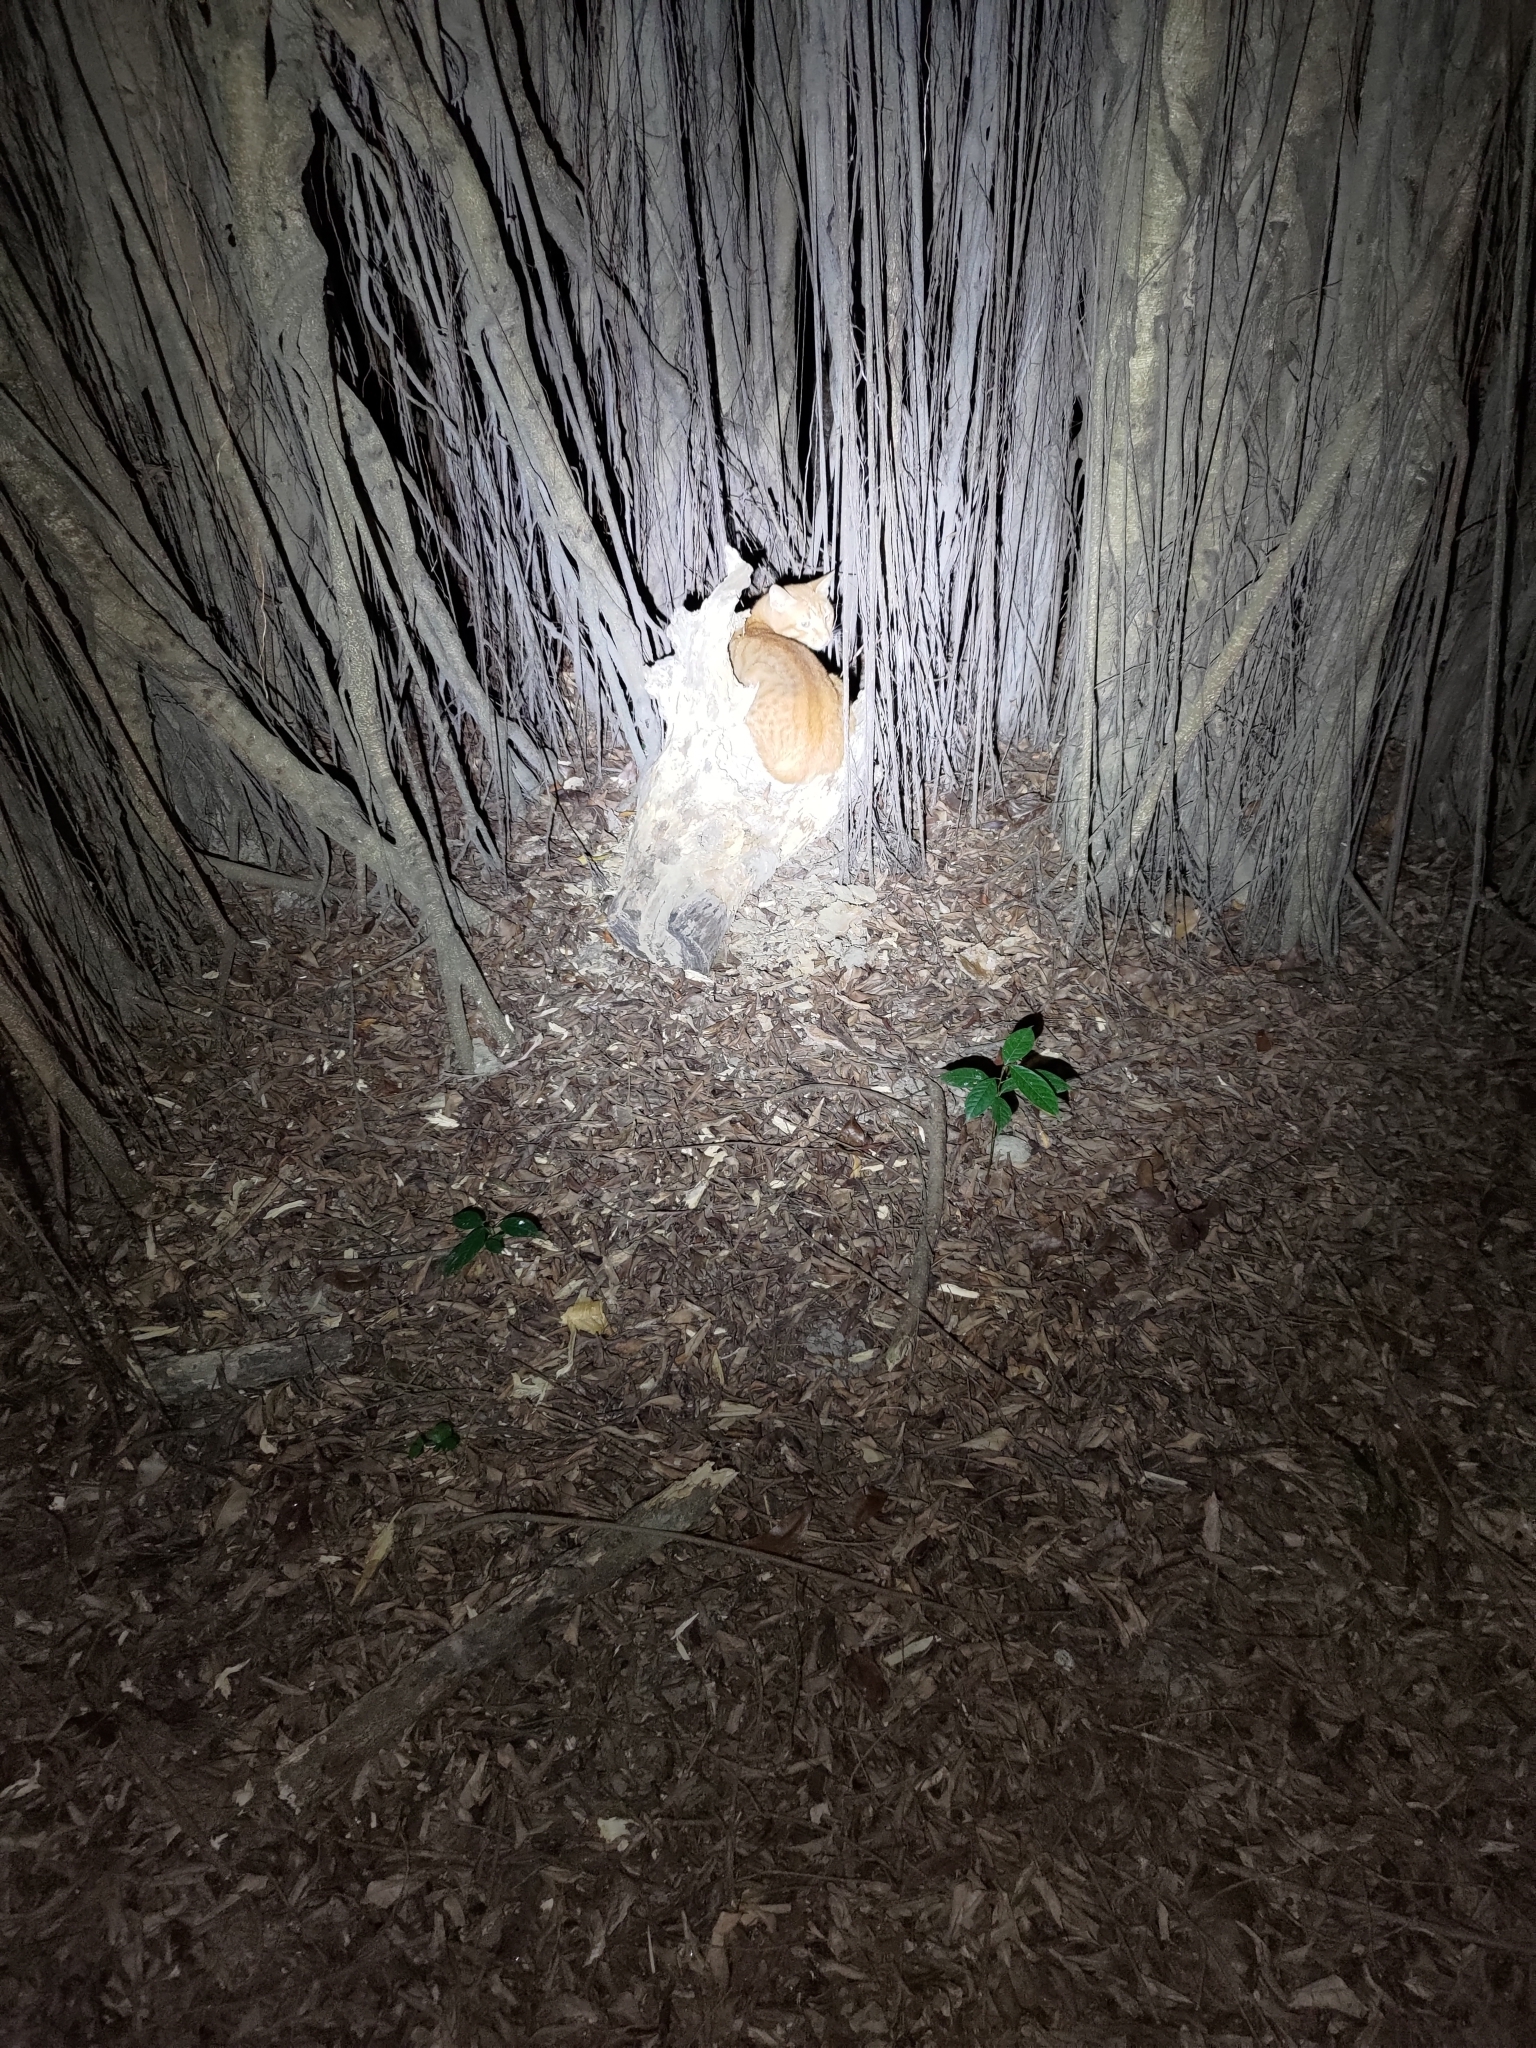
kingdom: Animalia
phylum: Chordata
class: Mammalia
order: Carnivora
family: Felidae
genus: Felis
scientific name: Felis catus
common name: Domestic cat
